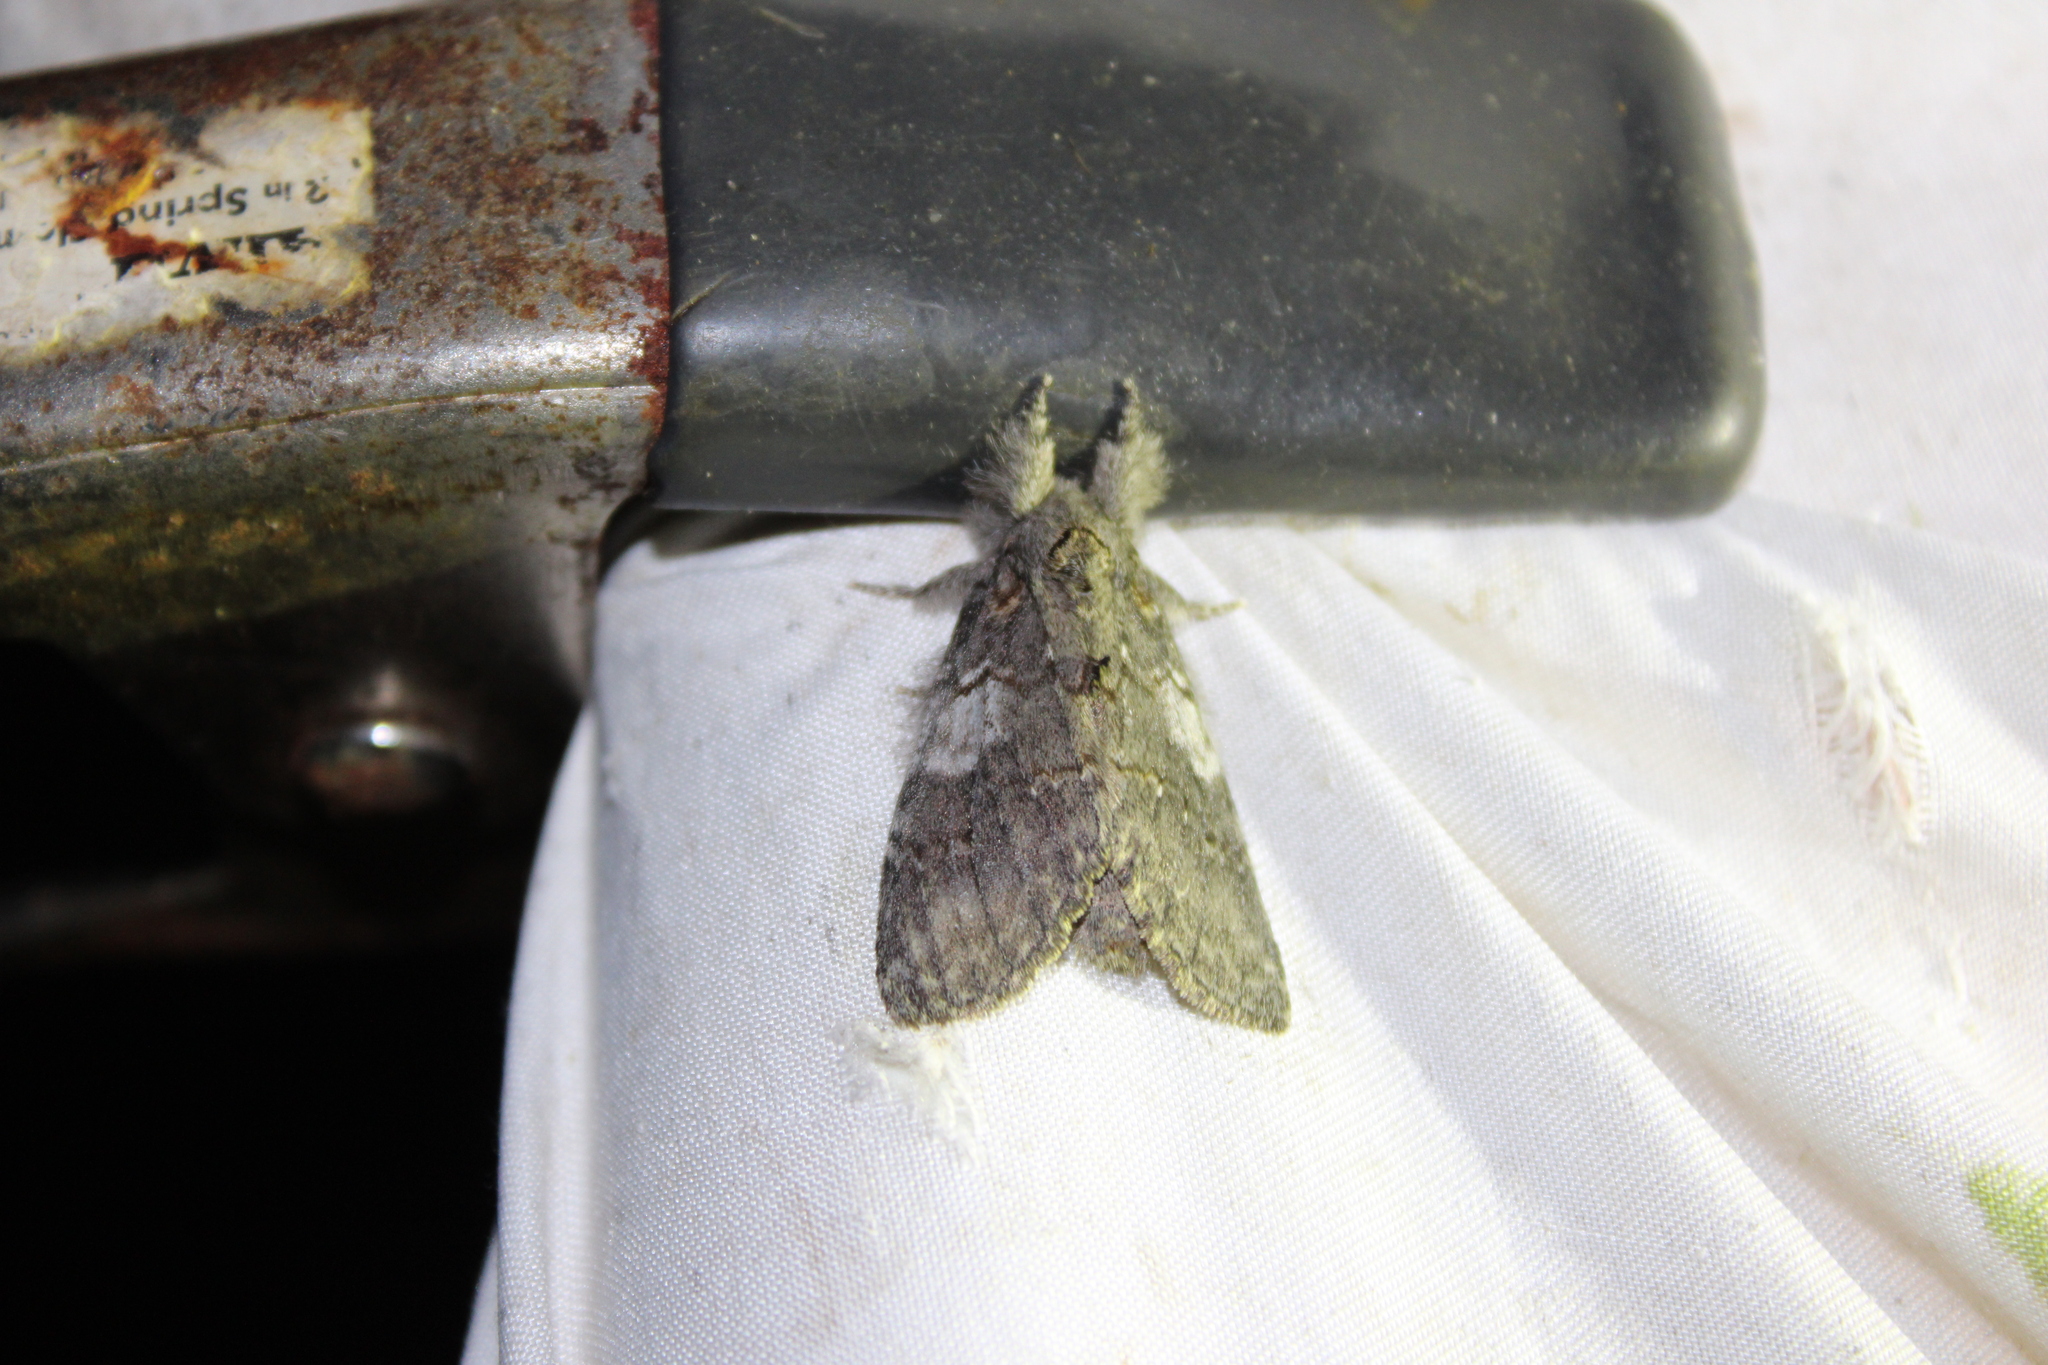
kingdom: Animalia
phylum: Arthropoda
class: Insecta
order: Lepidoptera
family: Notodontidae
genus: Peridea
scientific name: Peridea angulosa
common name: Angulose prominent
